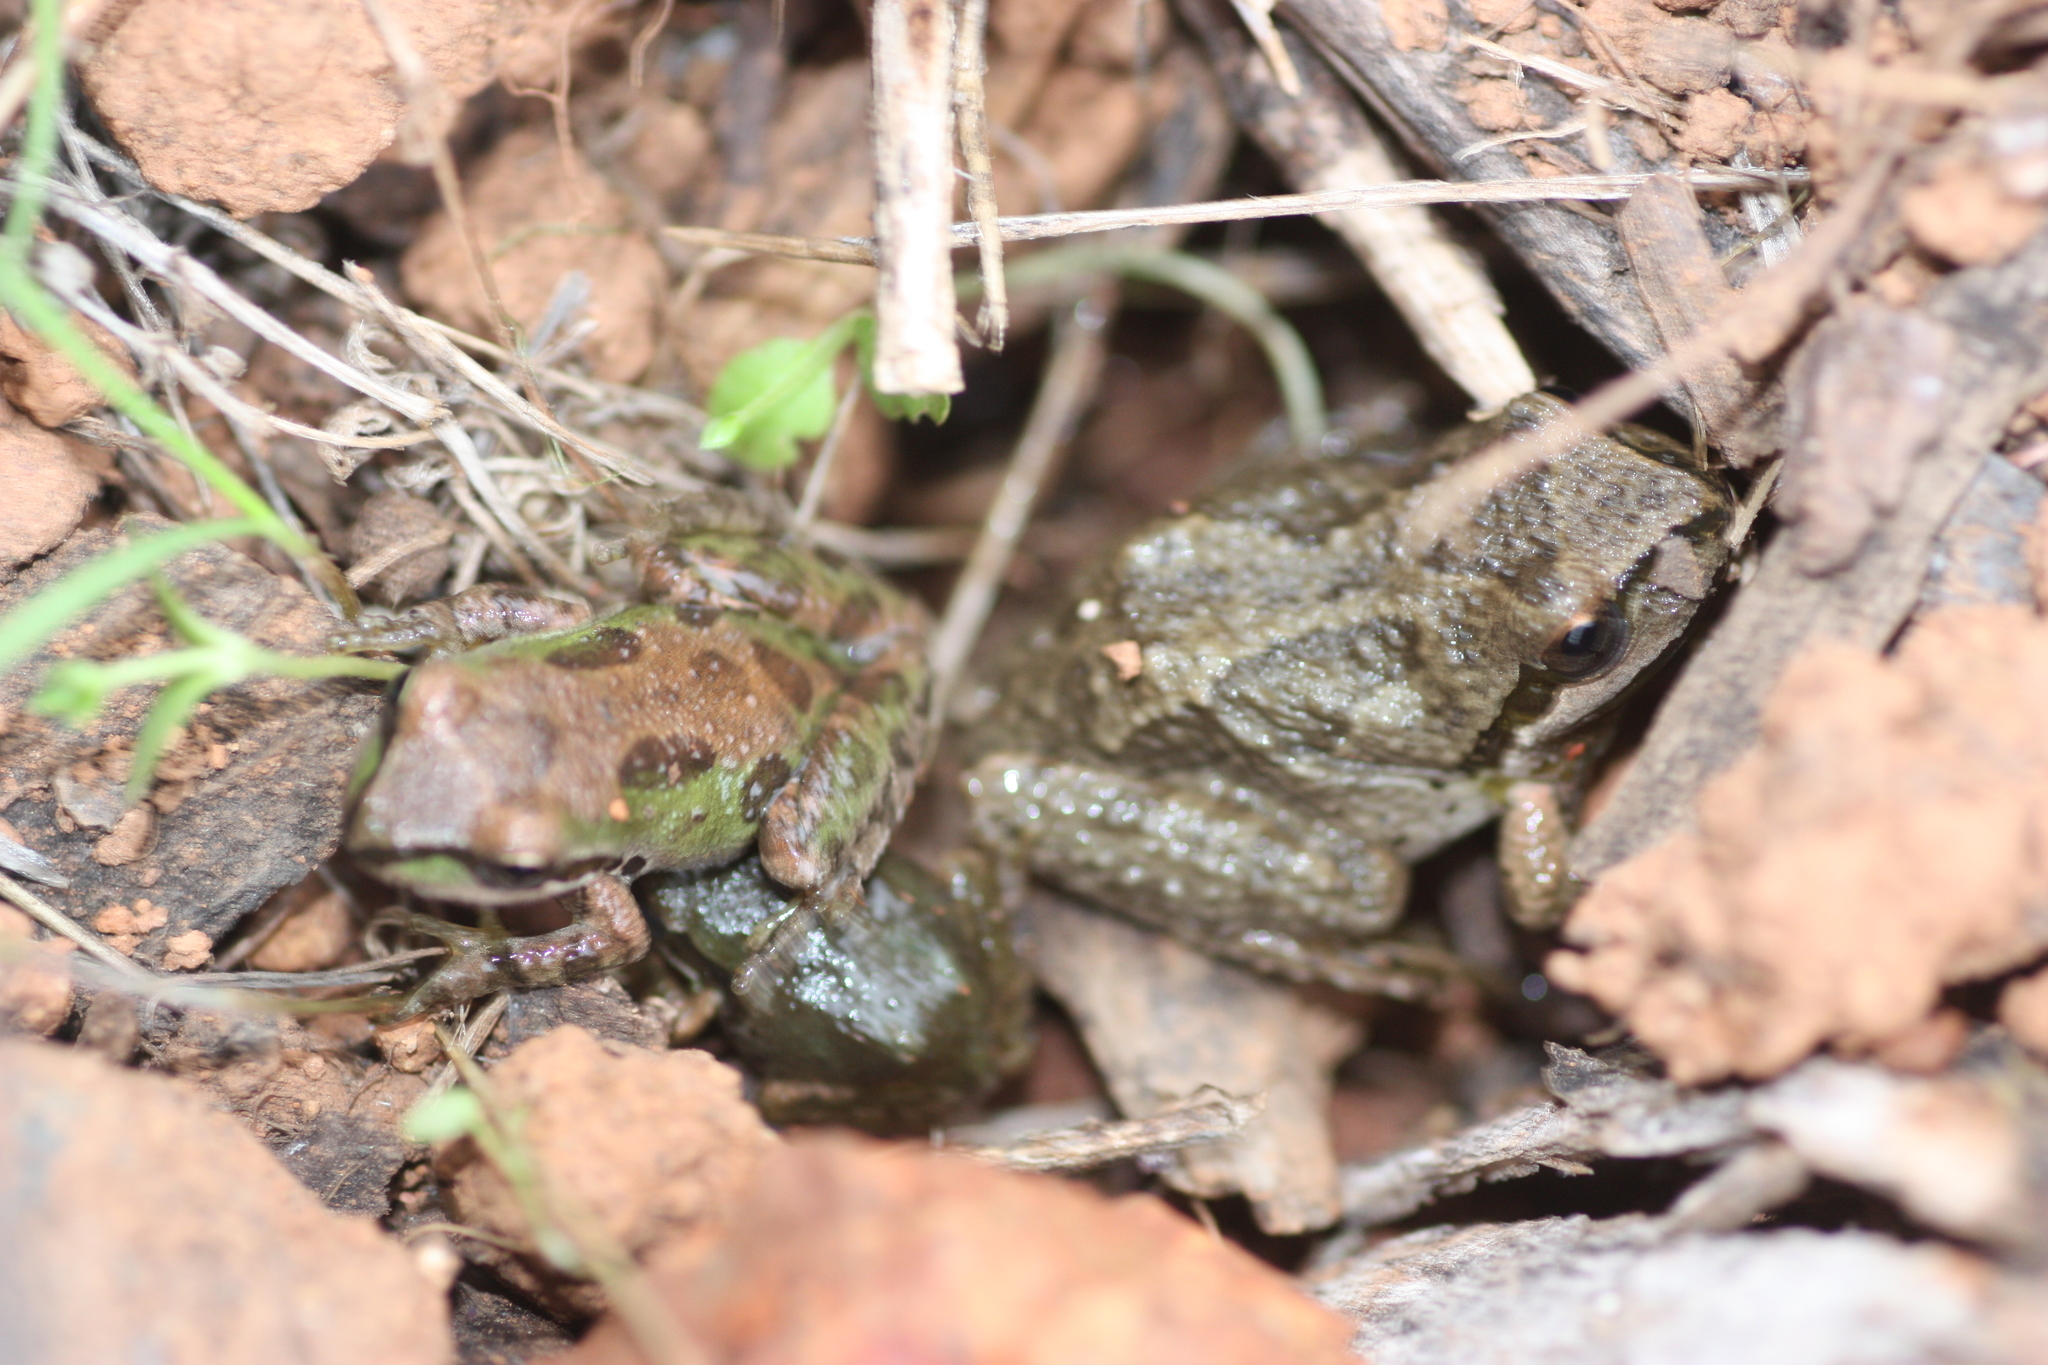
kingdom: Animalia
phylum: Chordata
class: Amphibia
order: Anura
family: Hylidae
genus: Pseudacris
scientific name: Pseudacris regilla
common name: Pacific chorus frog
